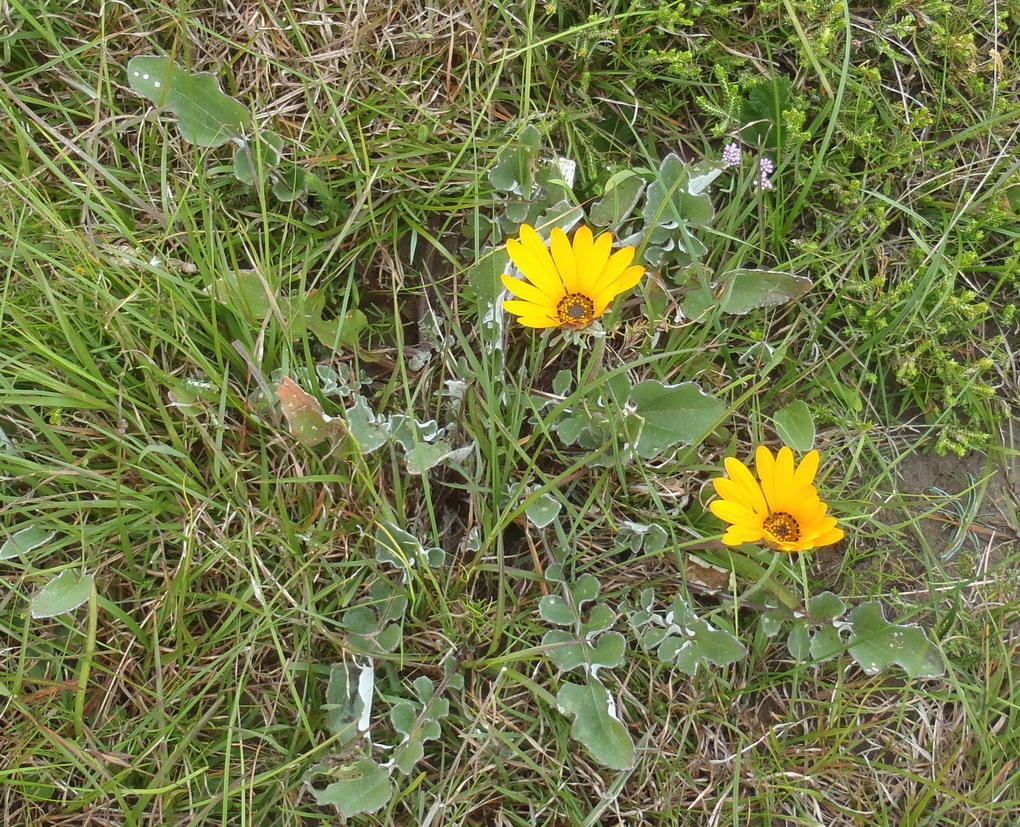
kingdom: Plantae
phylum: Tracheophyta
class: Magnoliopsida
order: Asterales
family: Asteraceae
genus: Arctotis
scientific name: Arctotis acaulis
